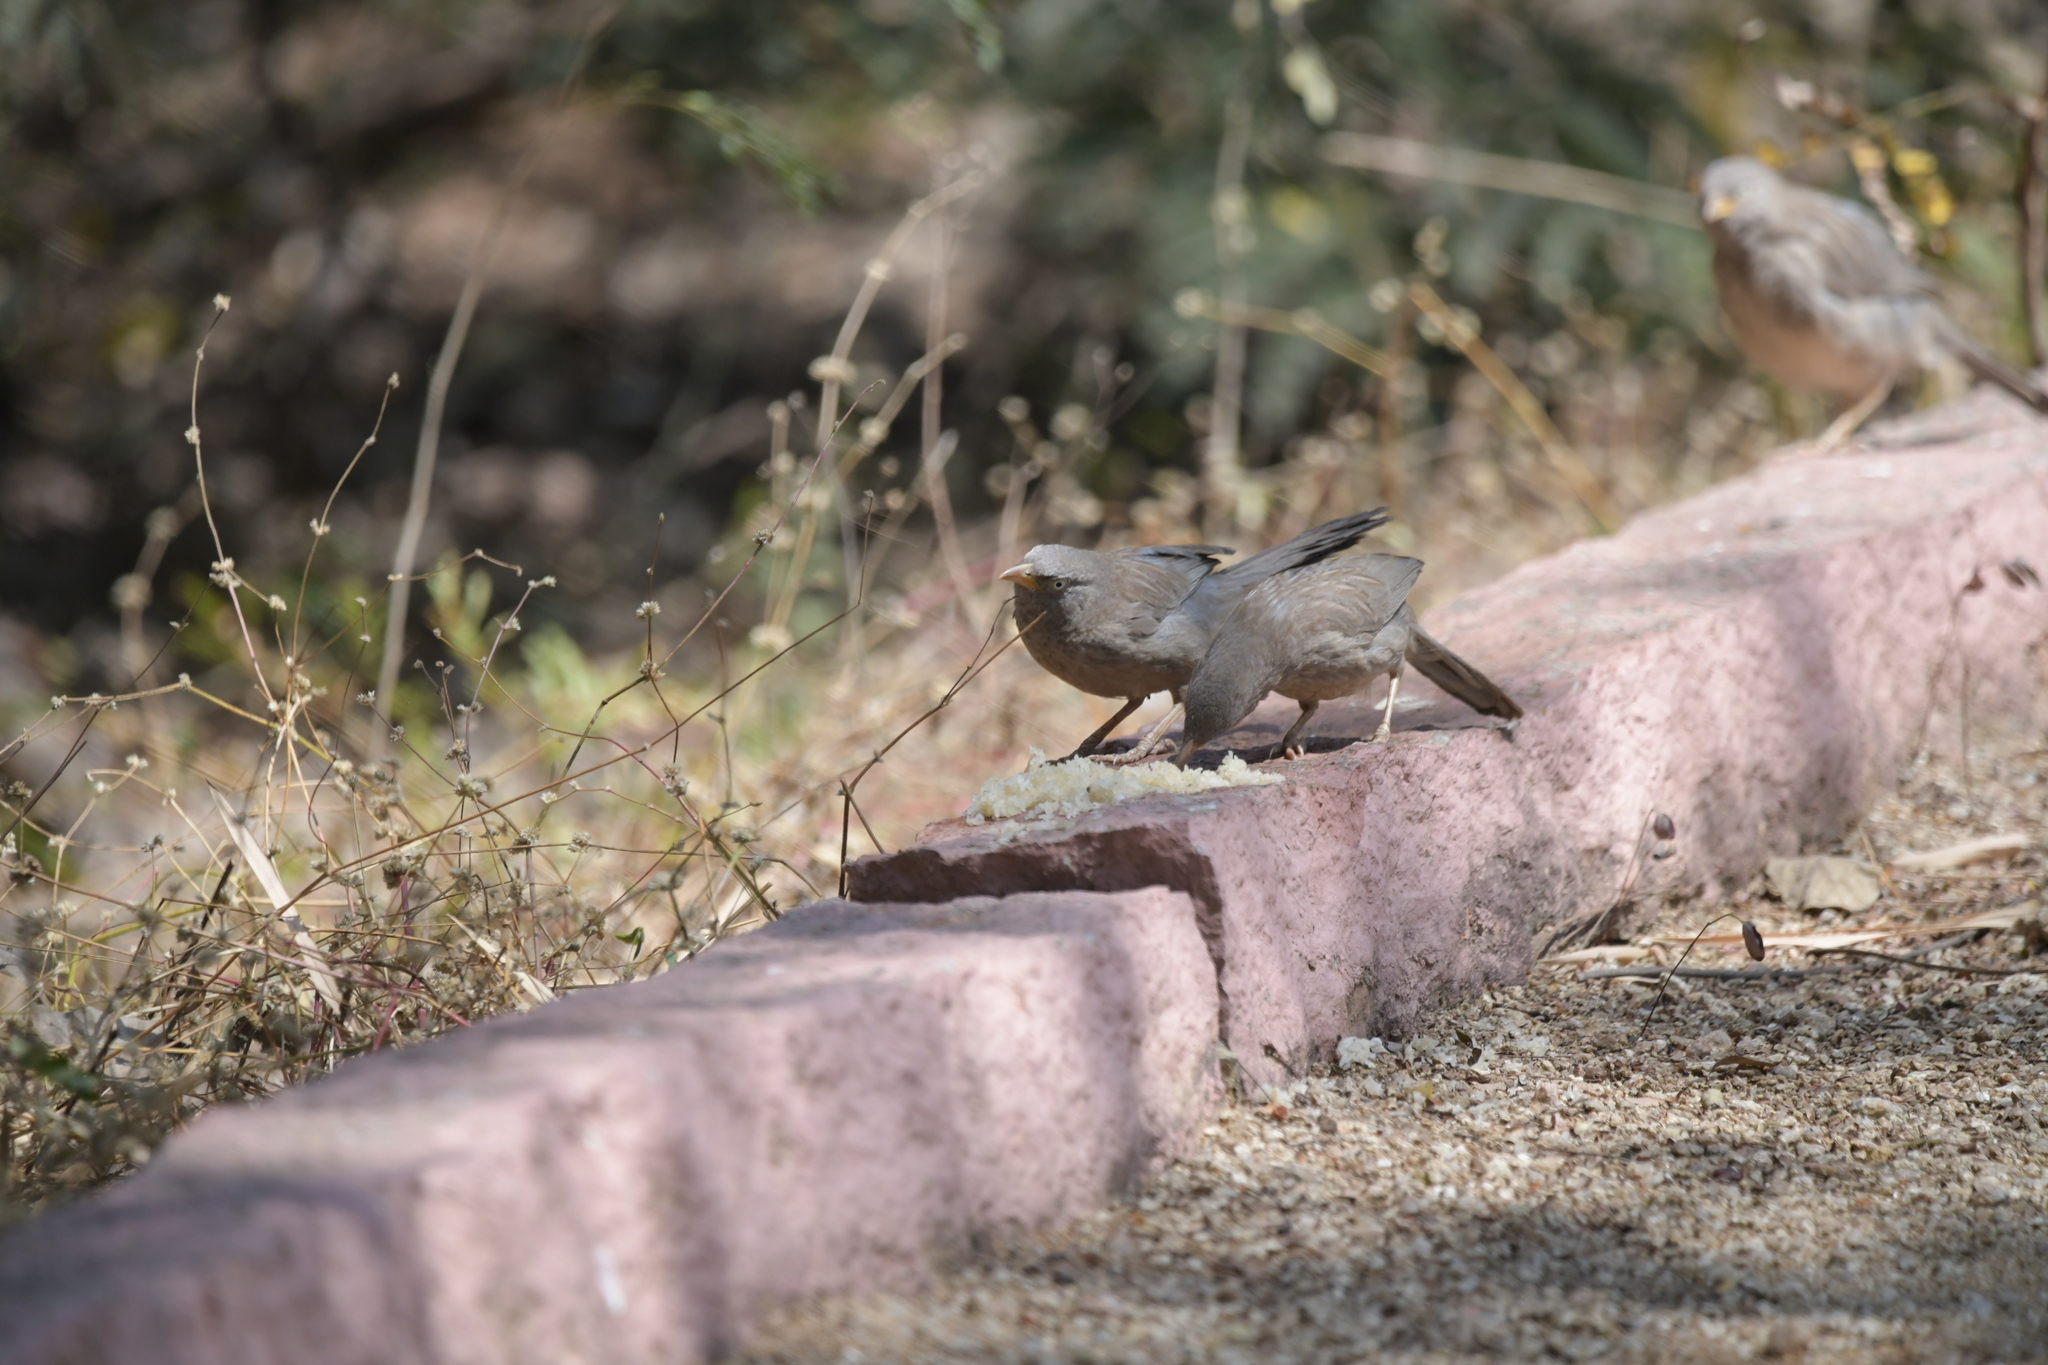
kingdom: Animalia
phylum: Chordata
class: Aves
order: Passeriformes
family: Leiothrichidae
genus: Turdoides
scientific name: Turdoides striata
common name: Jungle babbler
